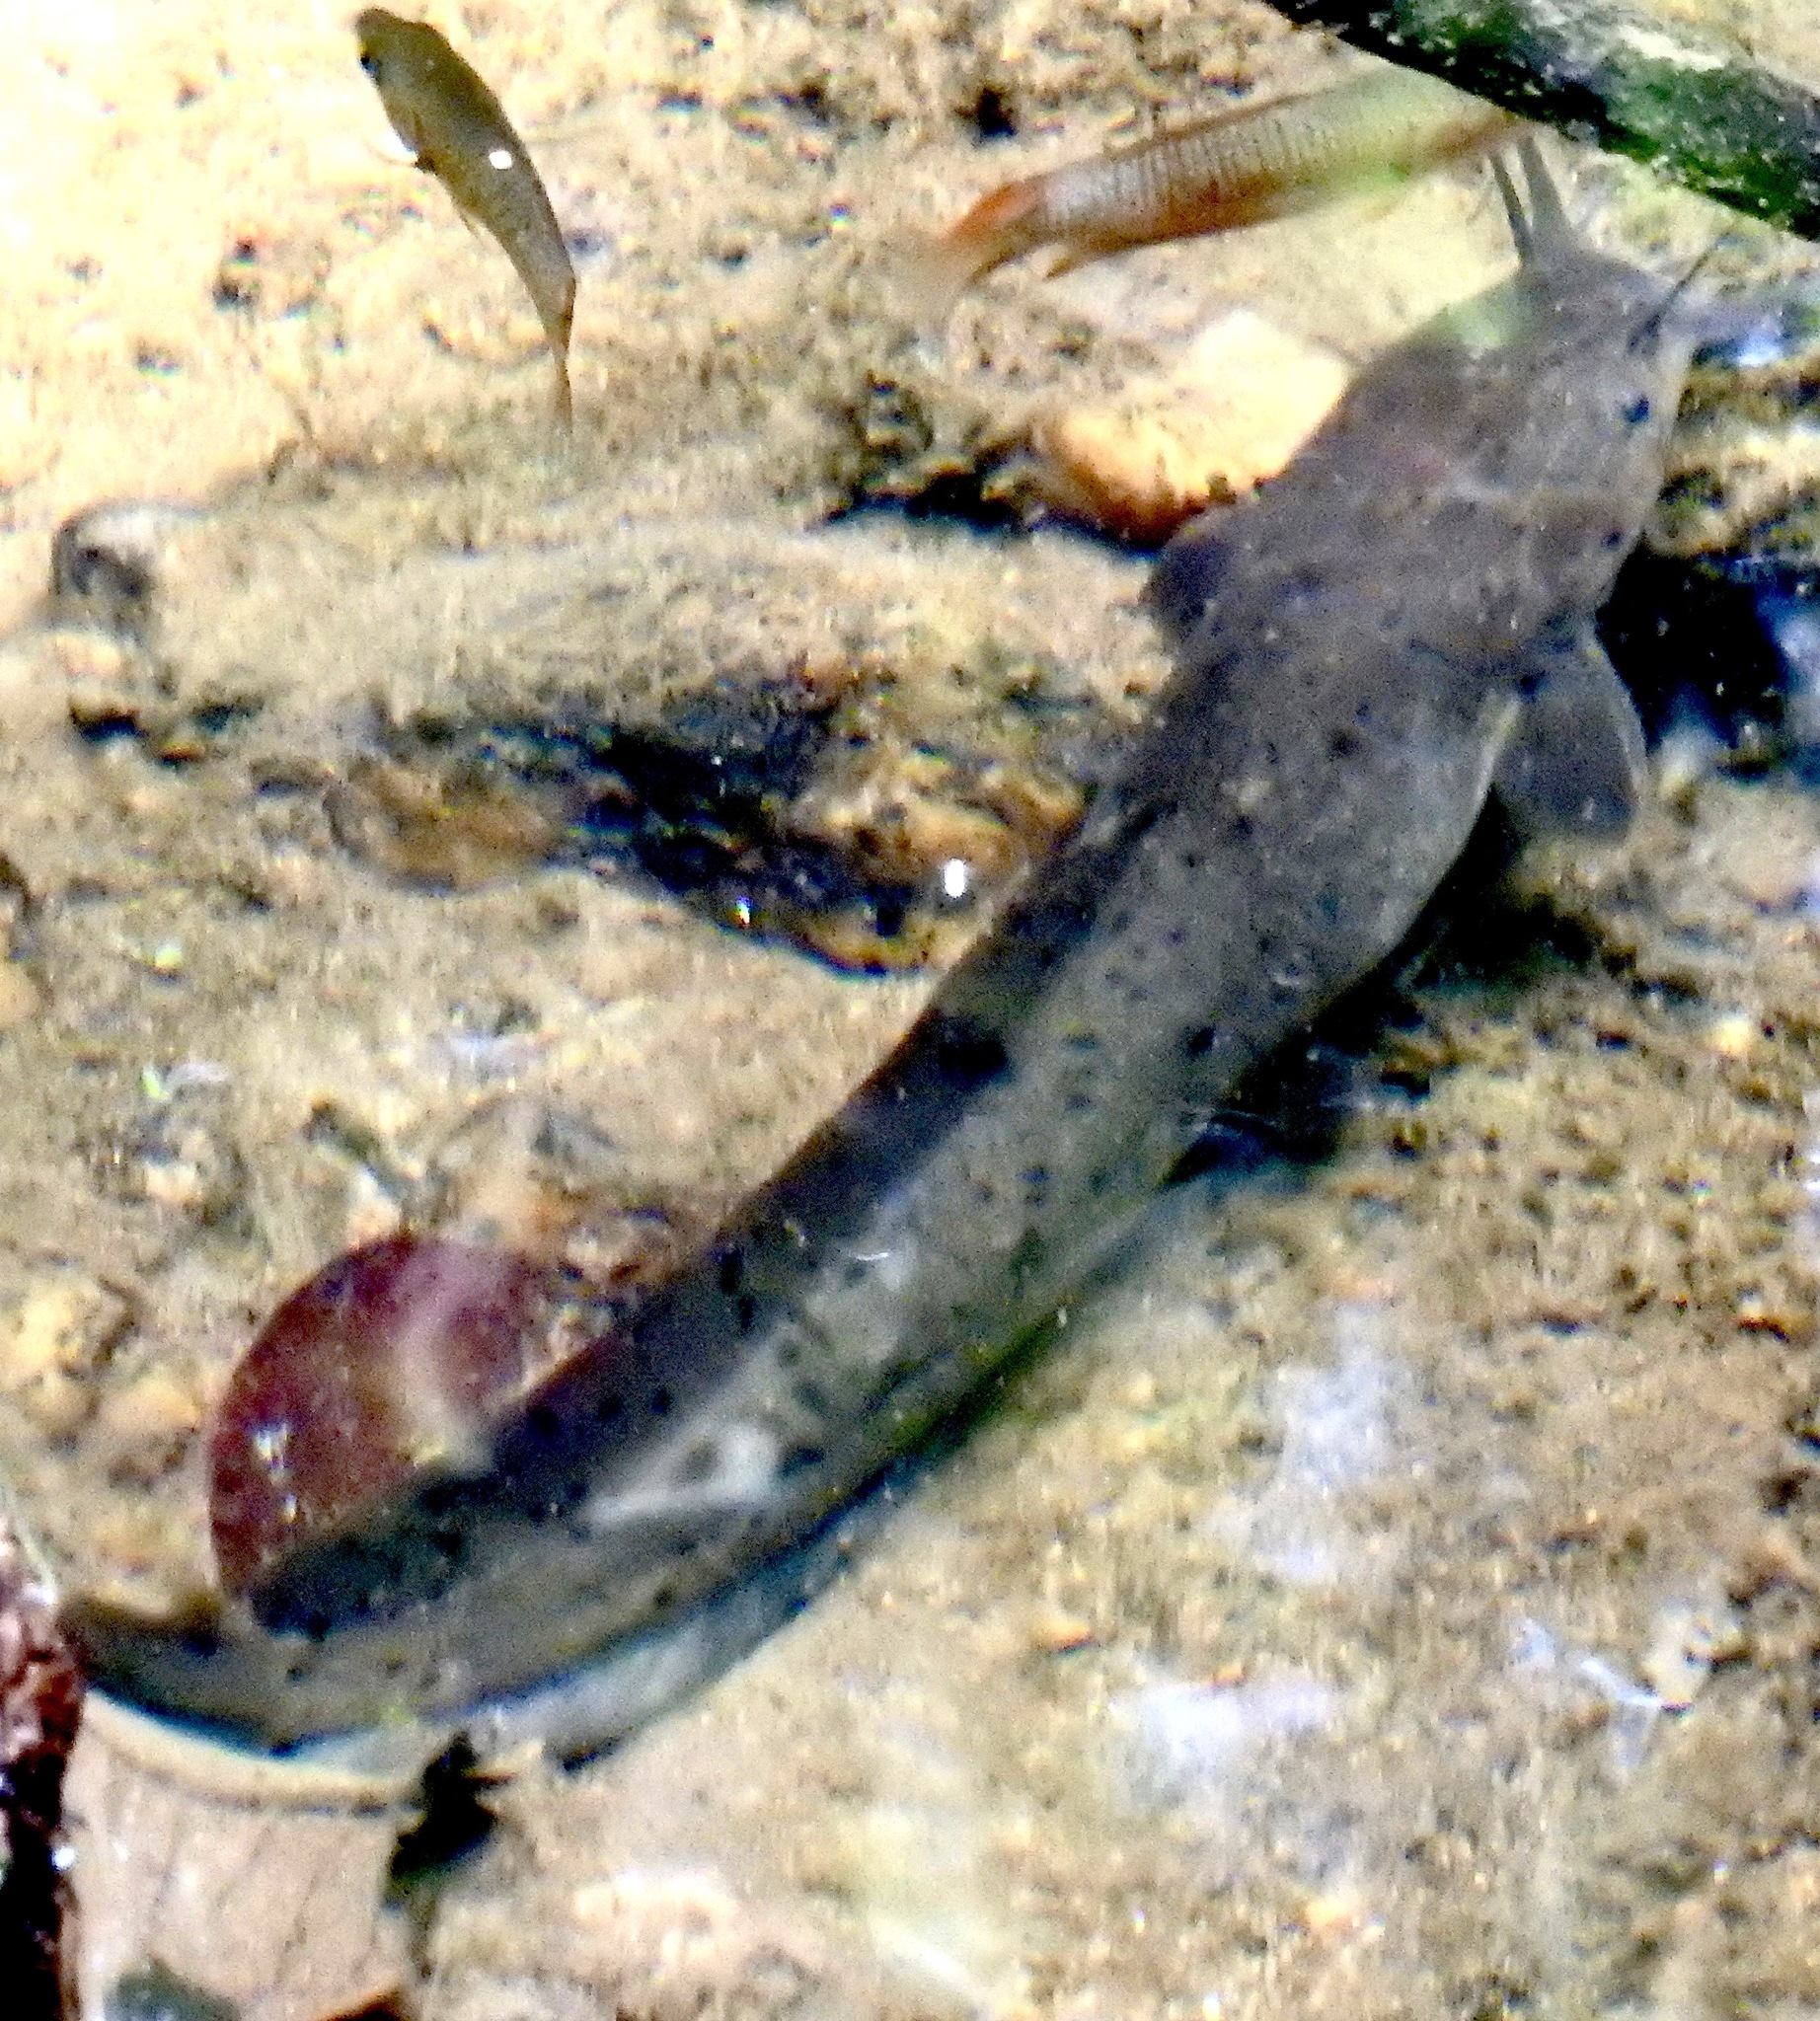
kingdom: Animalia
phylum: Chordata
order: Siluriformes
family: Clariidae
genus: Clarias
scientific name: Clarias brachysoma
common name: Sri lanka walking catfish
